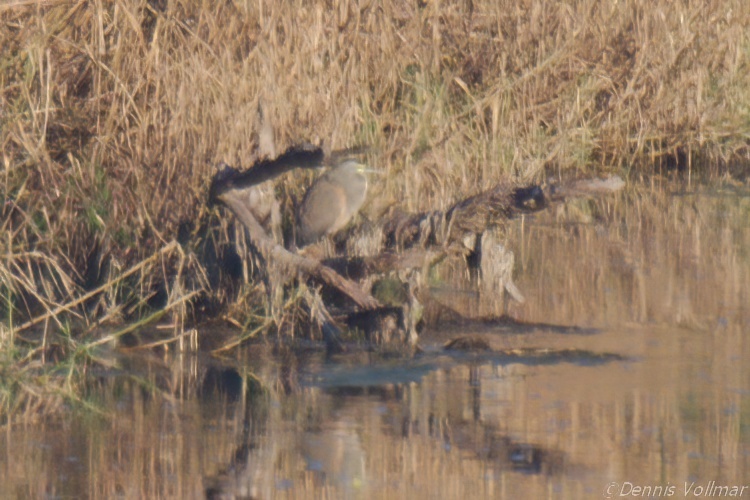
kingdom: Animalia
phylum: Chordata
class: Aves
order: Pelecaniformes
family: Ardeidae
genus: Tigrisoma
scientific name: Tigrisoma mexicanum
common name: Bare-throated tiger-heron
